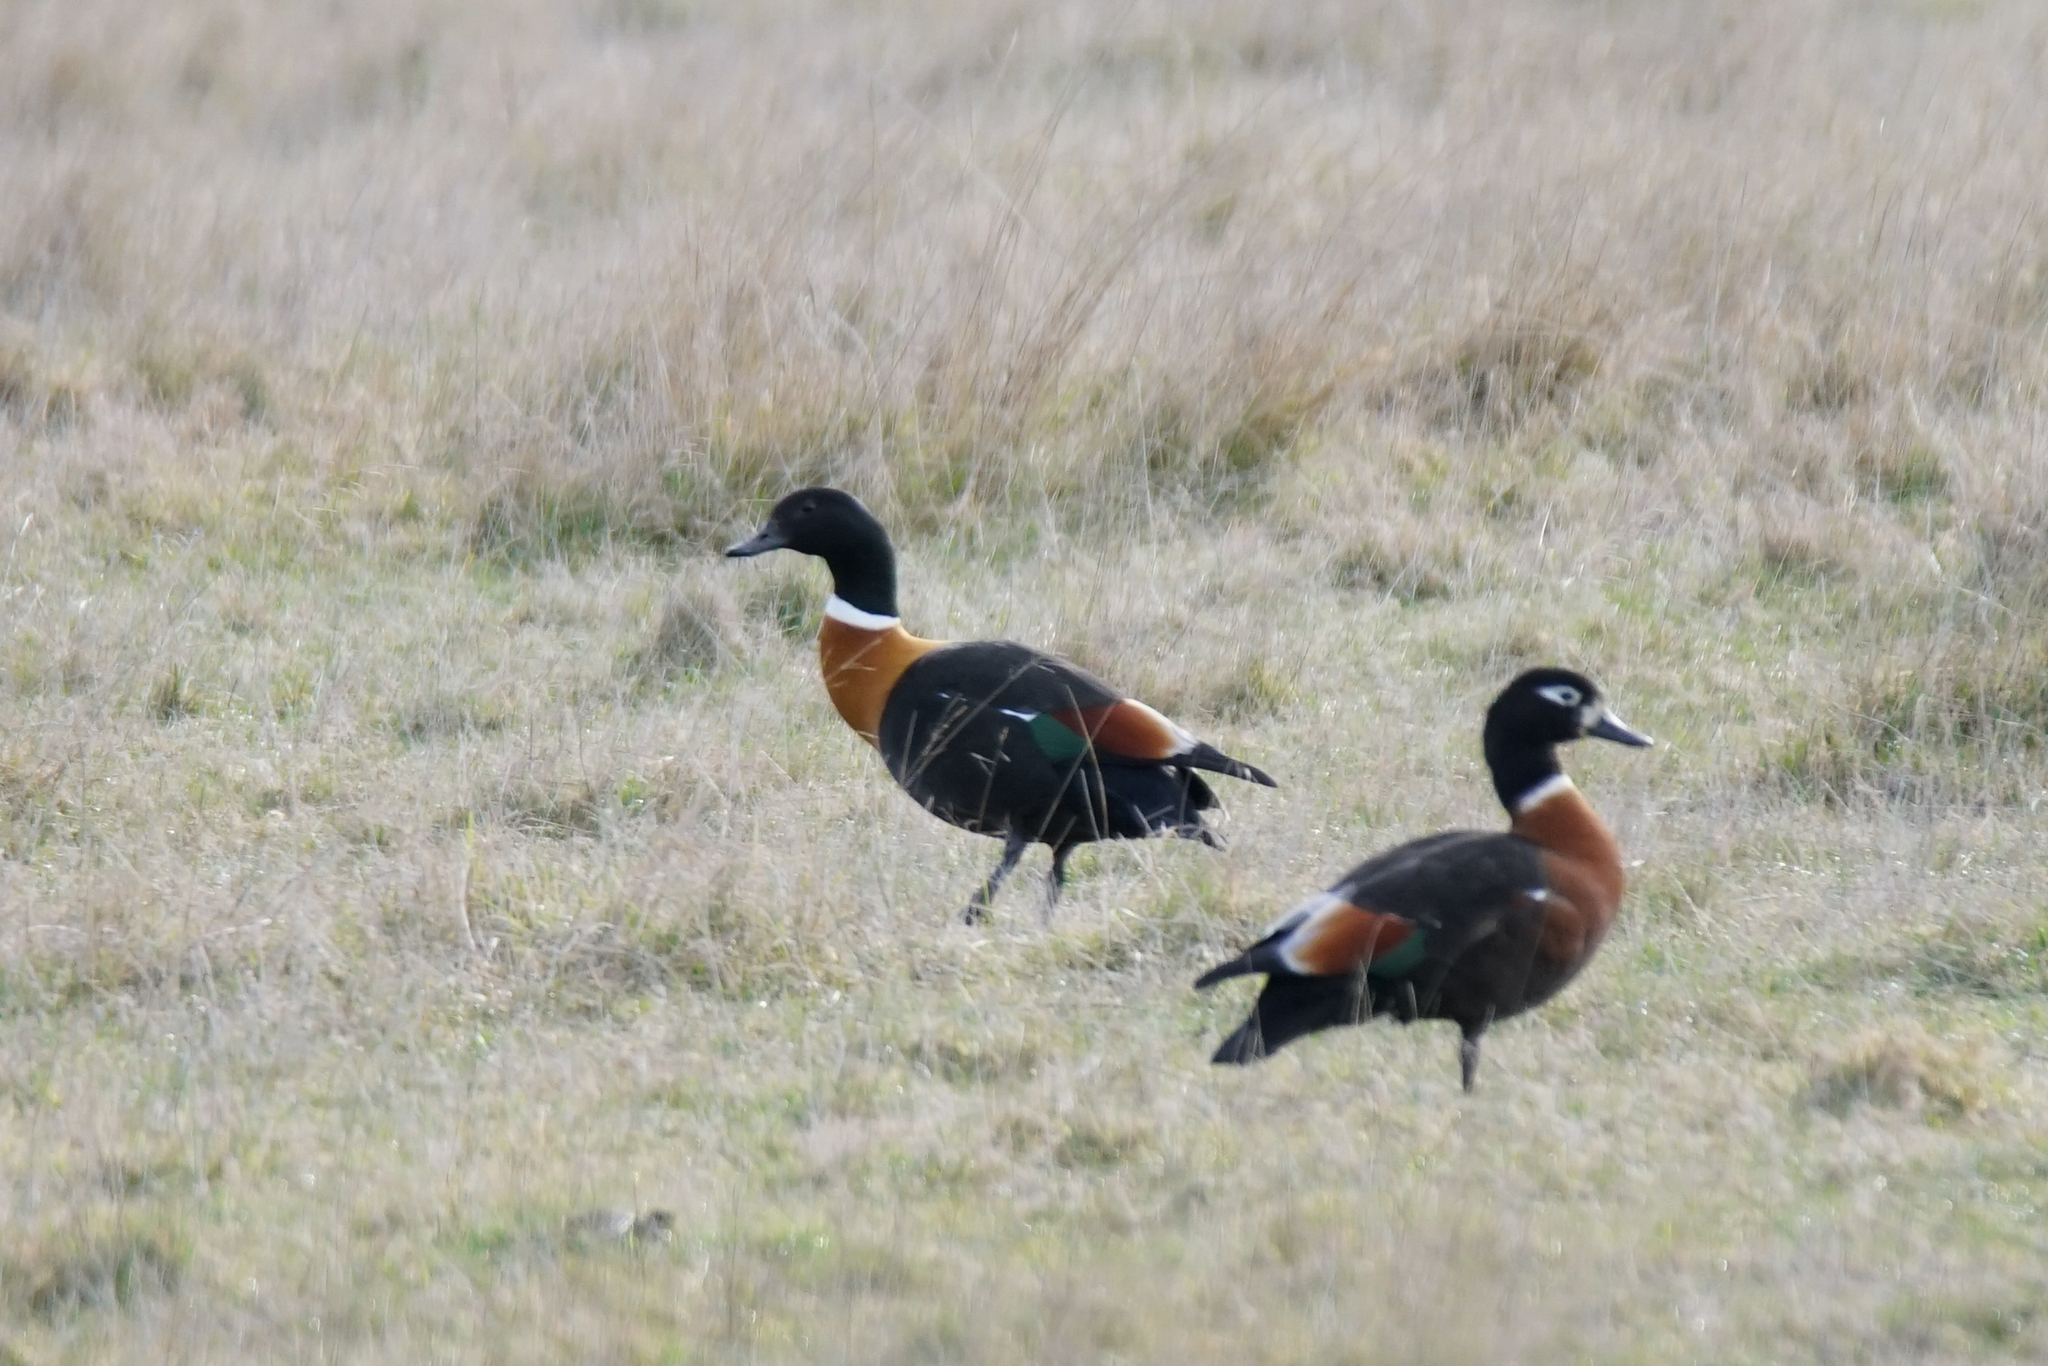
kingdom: Animalia
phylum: Chordata
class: Aves
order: Anseriformes
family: Anatidae
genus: Tadorna
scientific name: Tadorna tadornoides
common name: Australian shelduck
